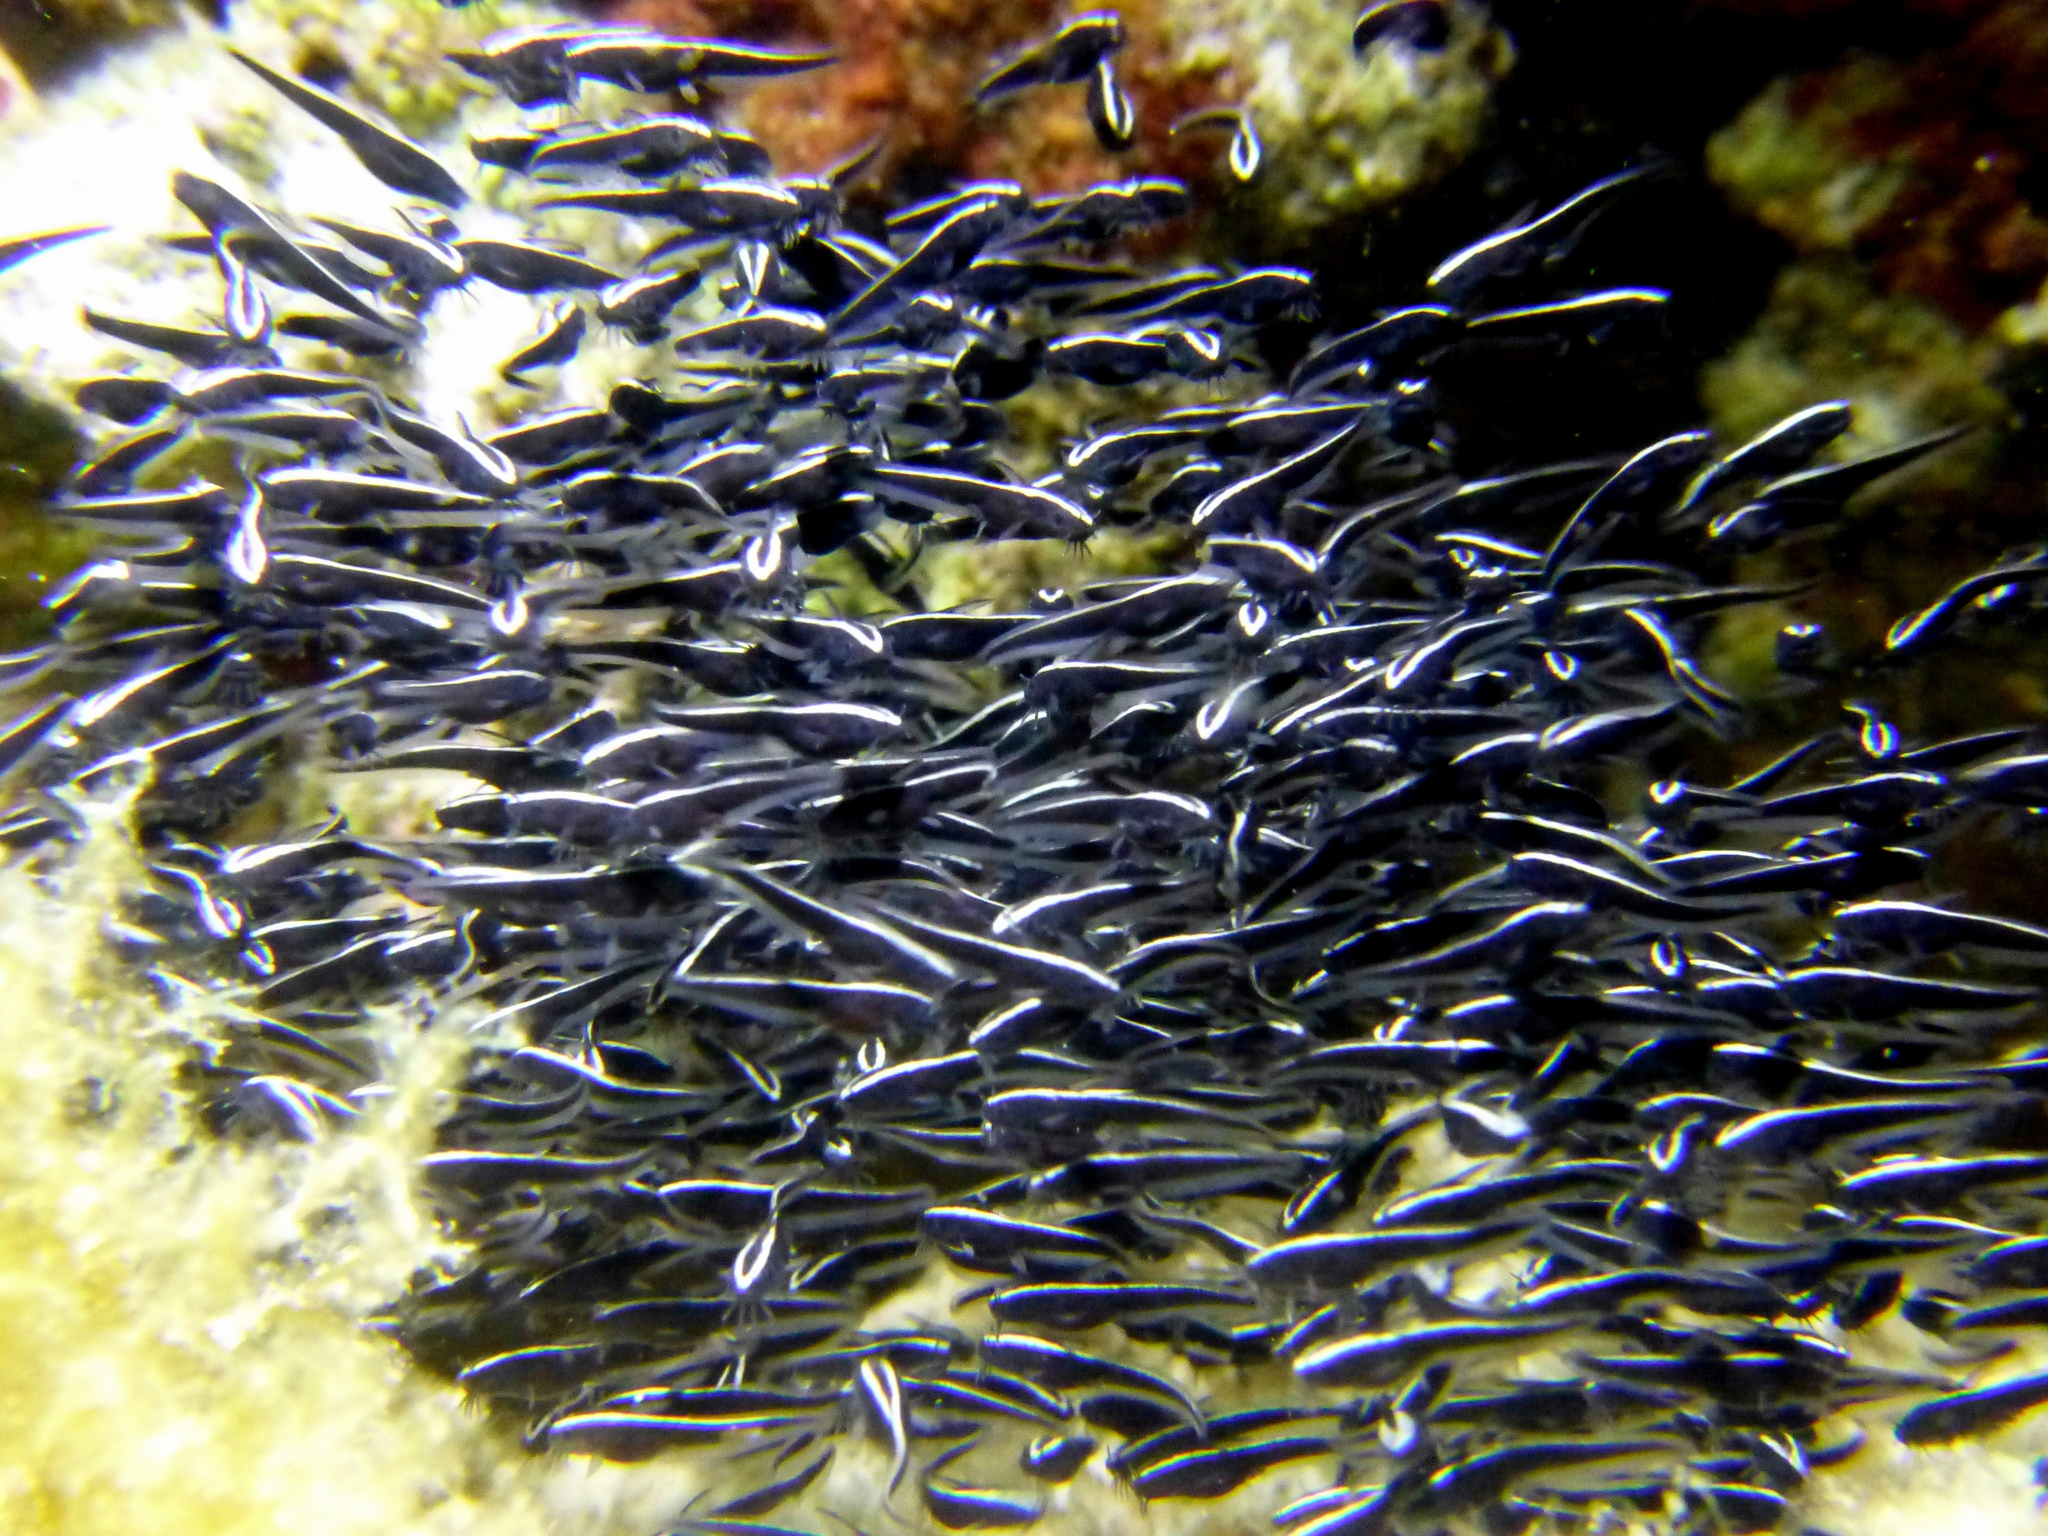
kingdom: Animalia
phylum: Chordata
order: Siluriformes
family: Plotosidae
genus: Plotosus
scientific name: Plotosus lineatus
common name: Striped eel catfish
